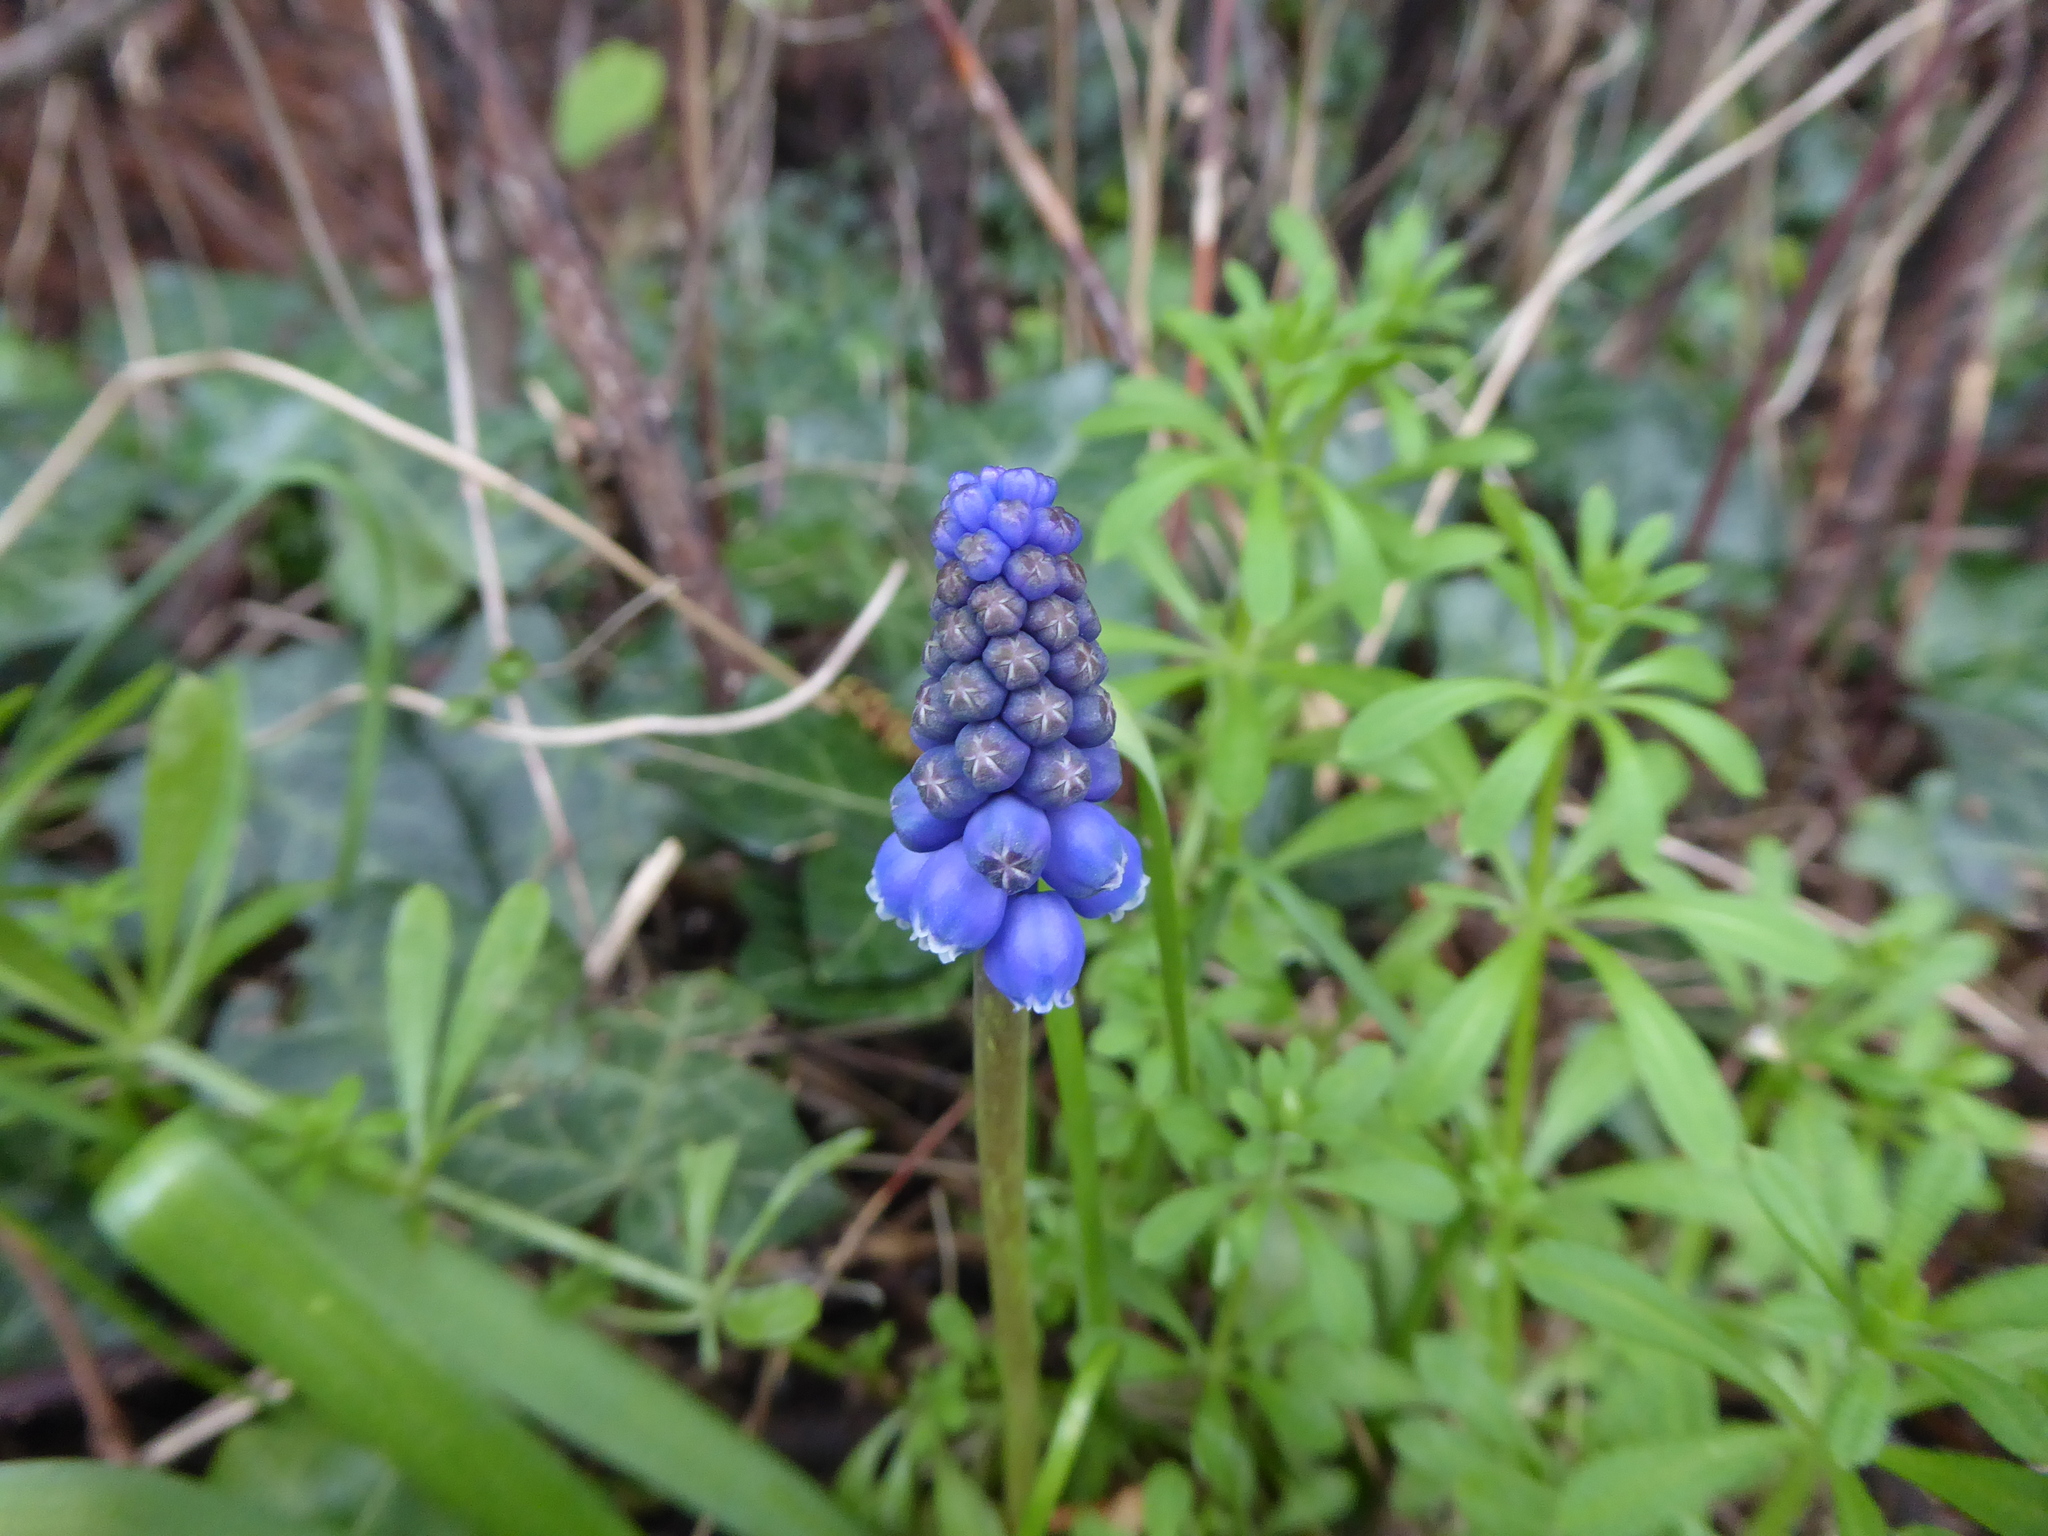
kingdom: Plantae
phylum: Tracheophyta
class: Liliopsida
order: Asparagales
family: Asparagaceae
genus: Muscari
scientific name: Muscari armeniacum
